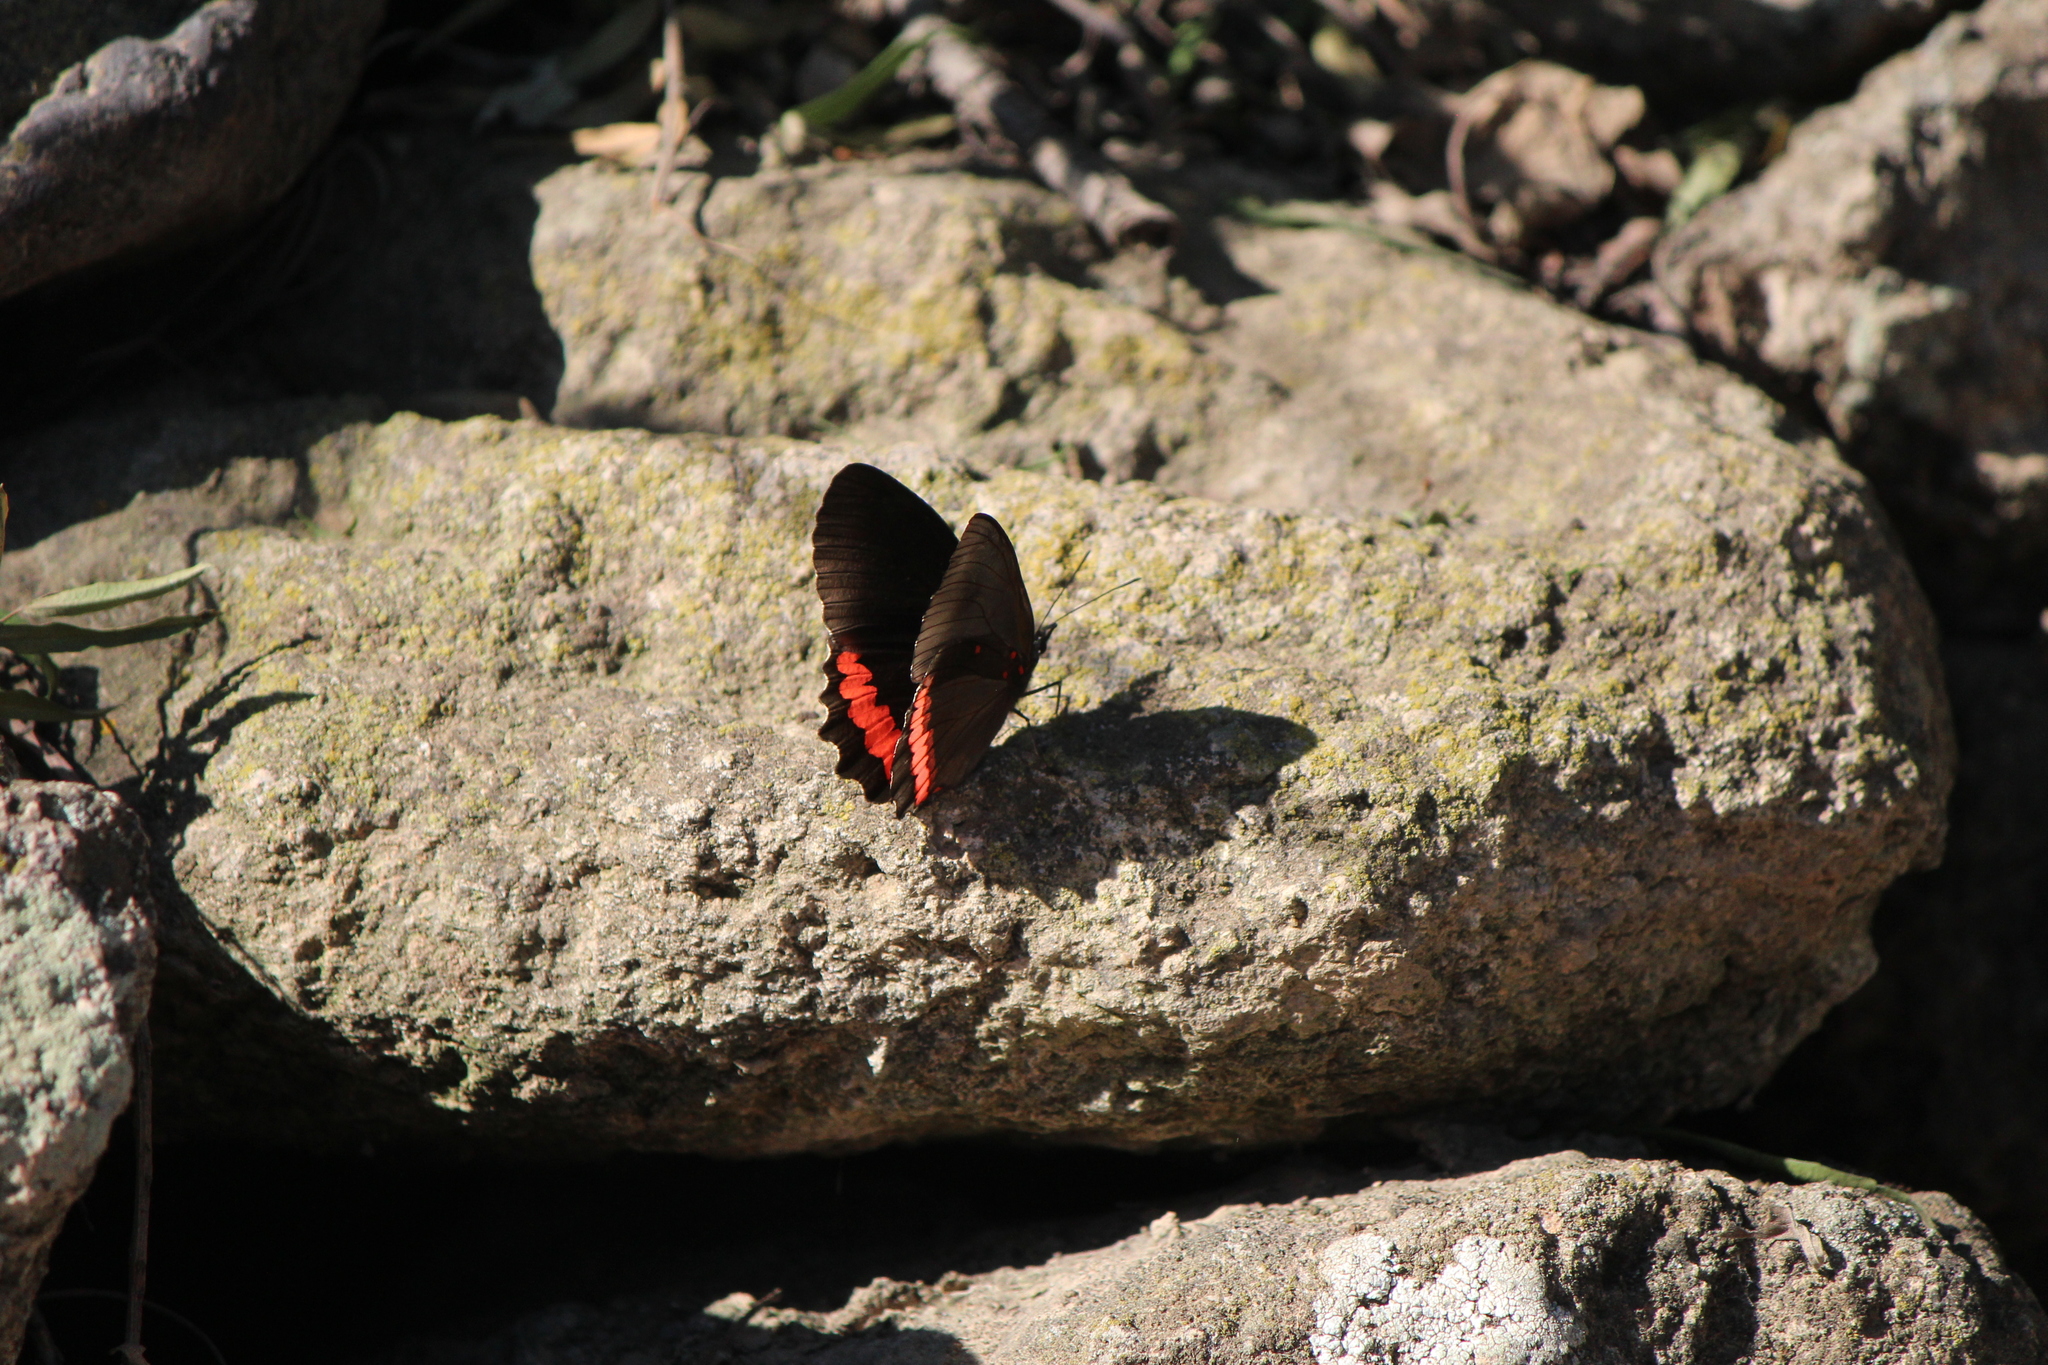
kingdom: Animalia
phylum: Arthropoda
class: Insecta
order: Lepidoptera
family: Nymphalidae
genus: Biblis
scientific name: Biblis aganisa
